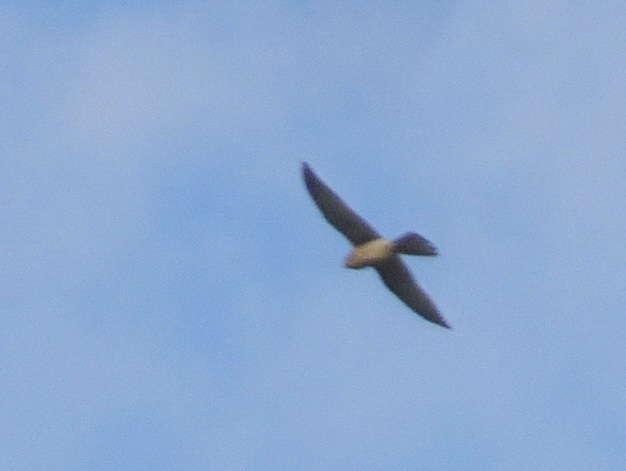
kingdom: Animalia
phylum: Chordata
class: Aves
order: Falconiformes
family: Falconidae
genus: Falco
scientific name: Falco tinnunculus
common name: Common kestrel
